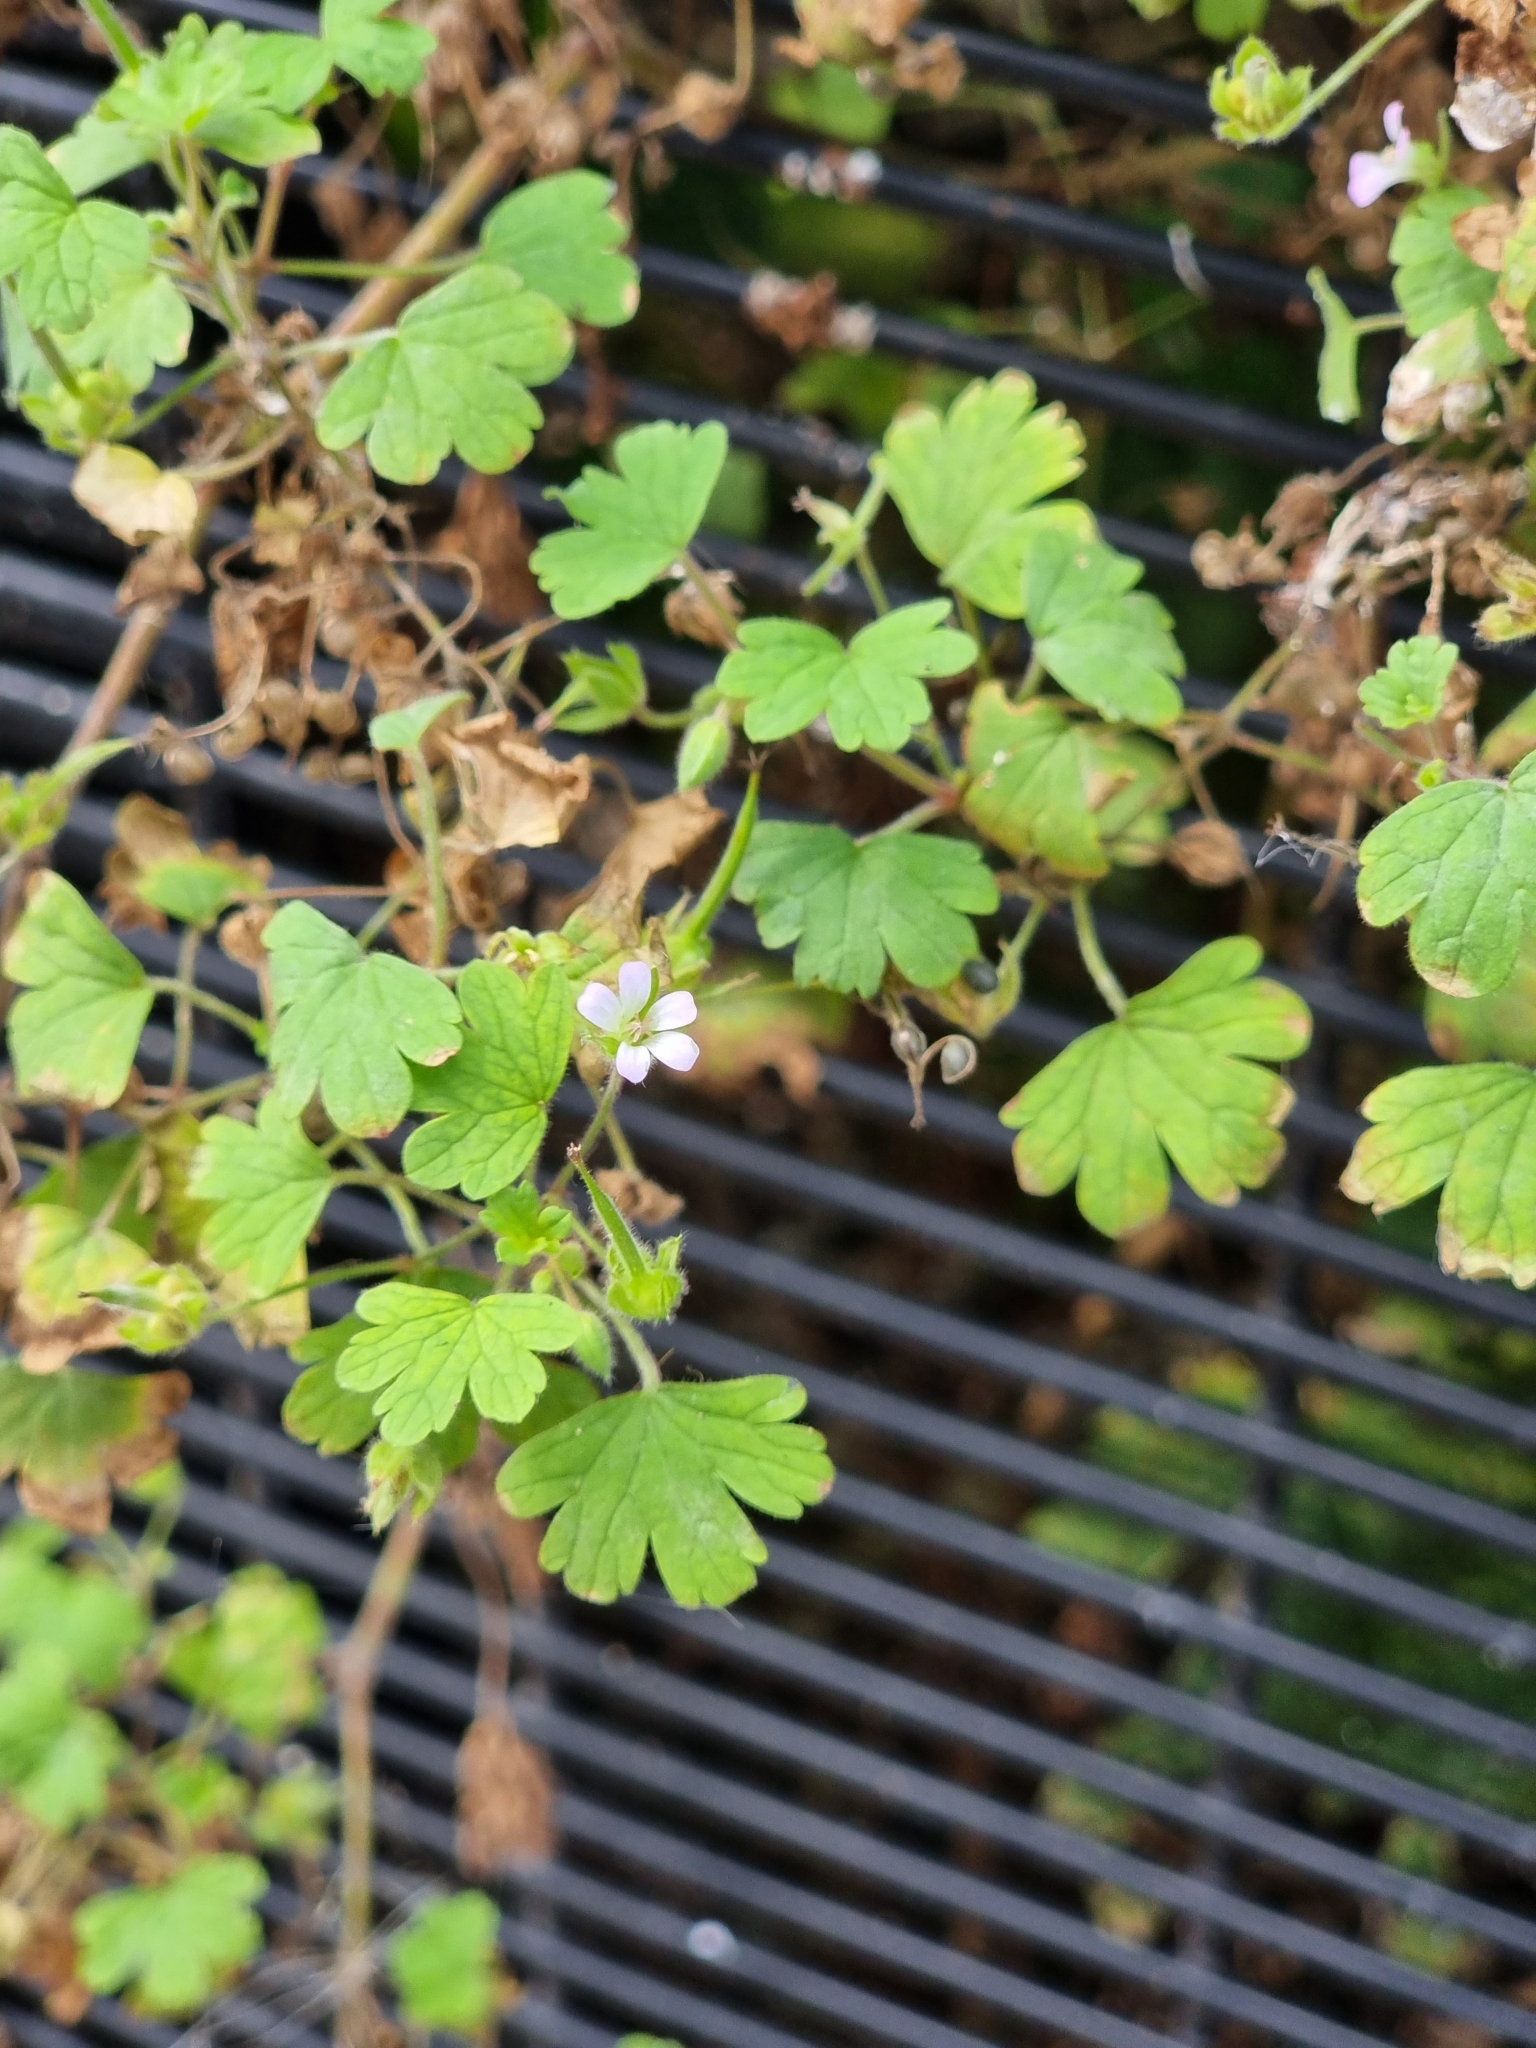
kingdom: Plantae
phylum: Tracheophyta
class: Magnoliopsida
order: Geraniales
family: Geraniaceae
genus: Geranium
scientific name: Geranium rotundifolium
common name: Round-leaved crane's-bill
